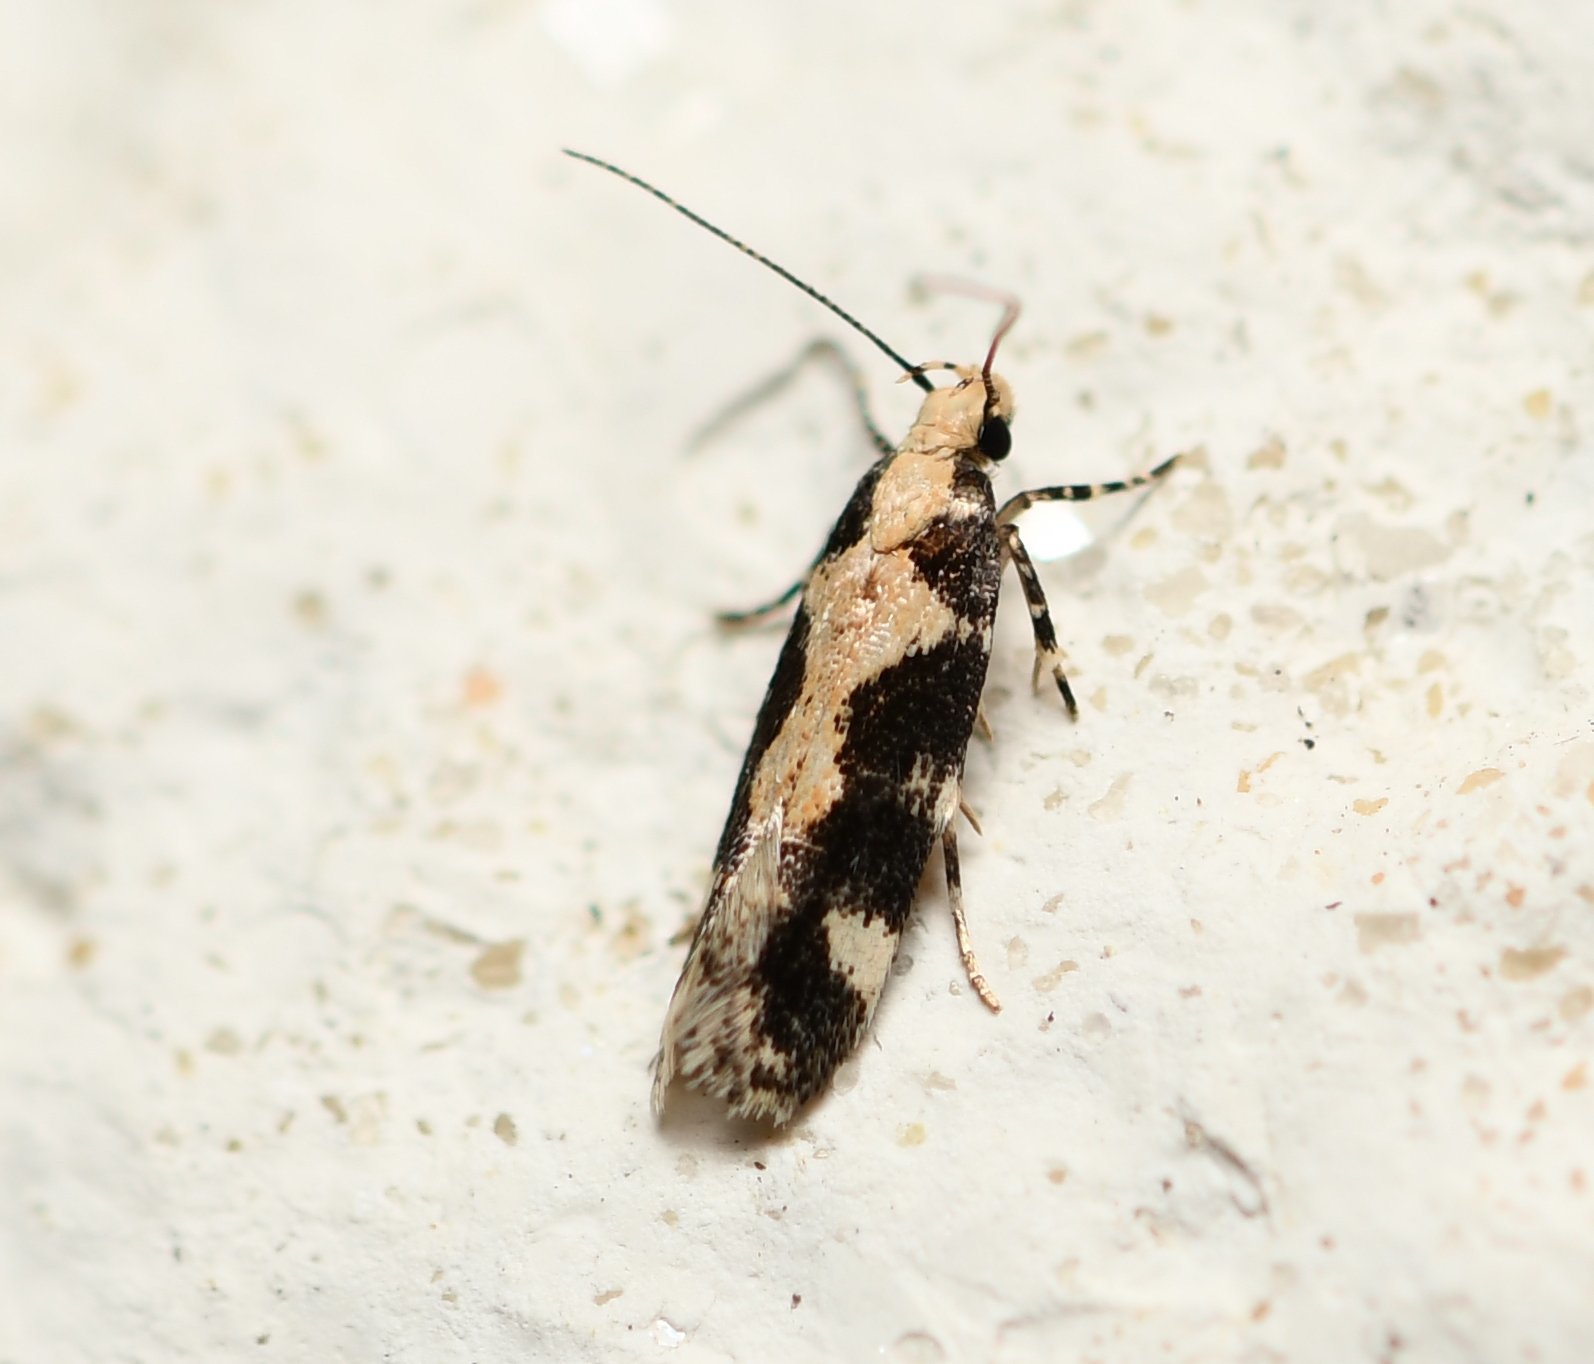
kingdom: Animalia
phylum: Arthropoda
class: Insecta
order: Lepidoptera
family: Gelechiidae
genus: Stegasta
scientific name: Stegasta capitella
